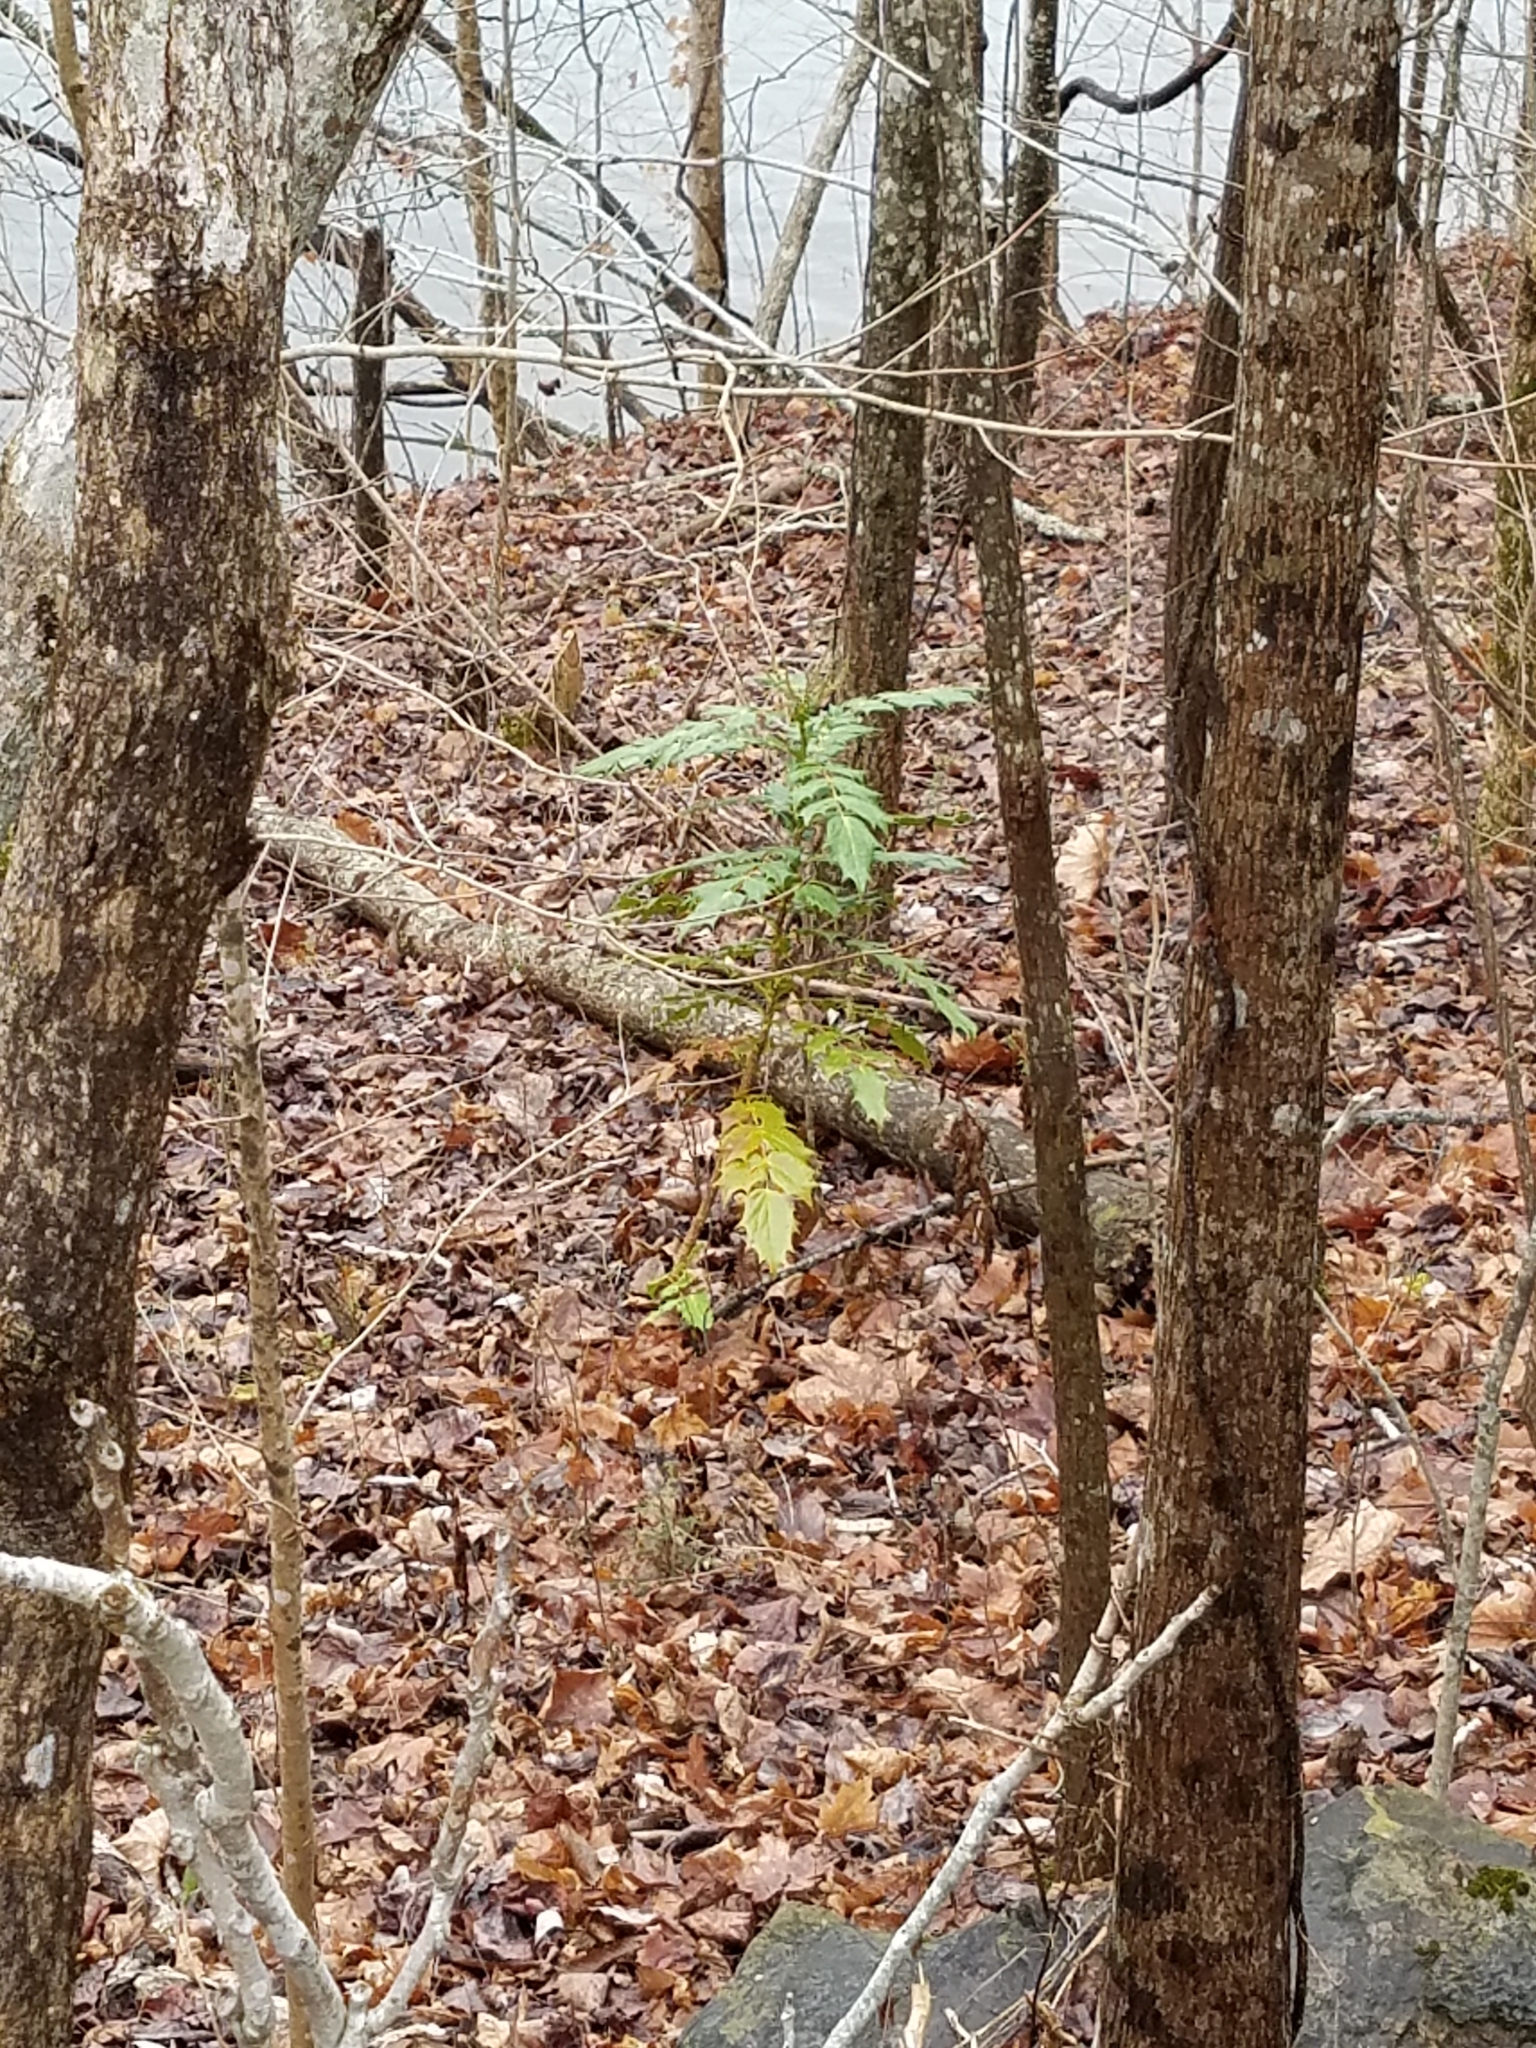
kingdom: Plantae
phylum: Tracheophyta
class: Magnoliopsida
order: Ranunculales
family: Berberidaceae
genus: Mahonia
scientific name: Mahonia bealei
